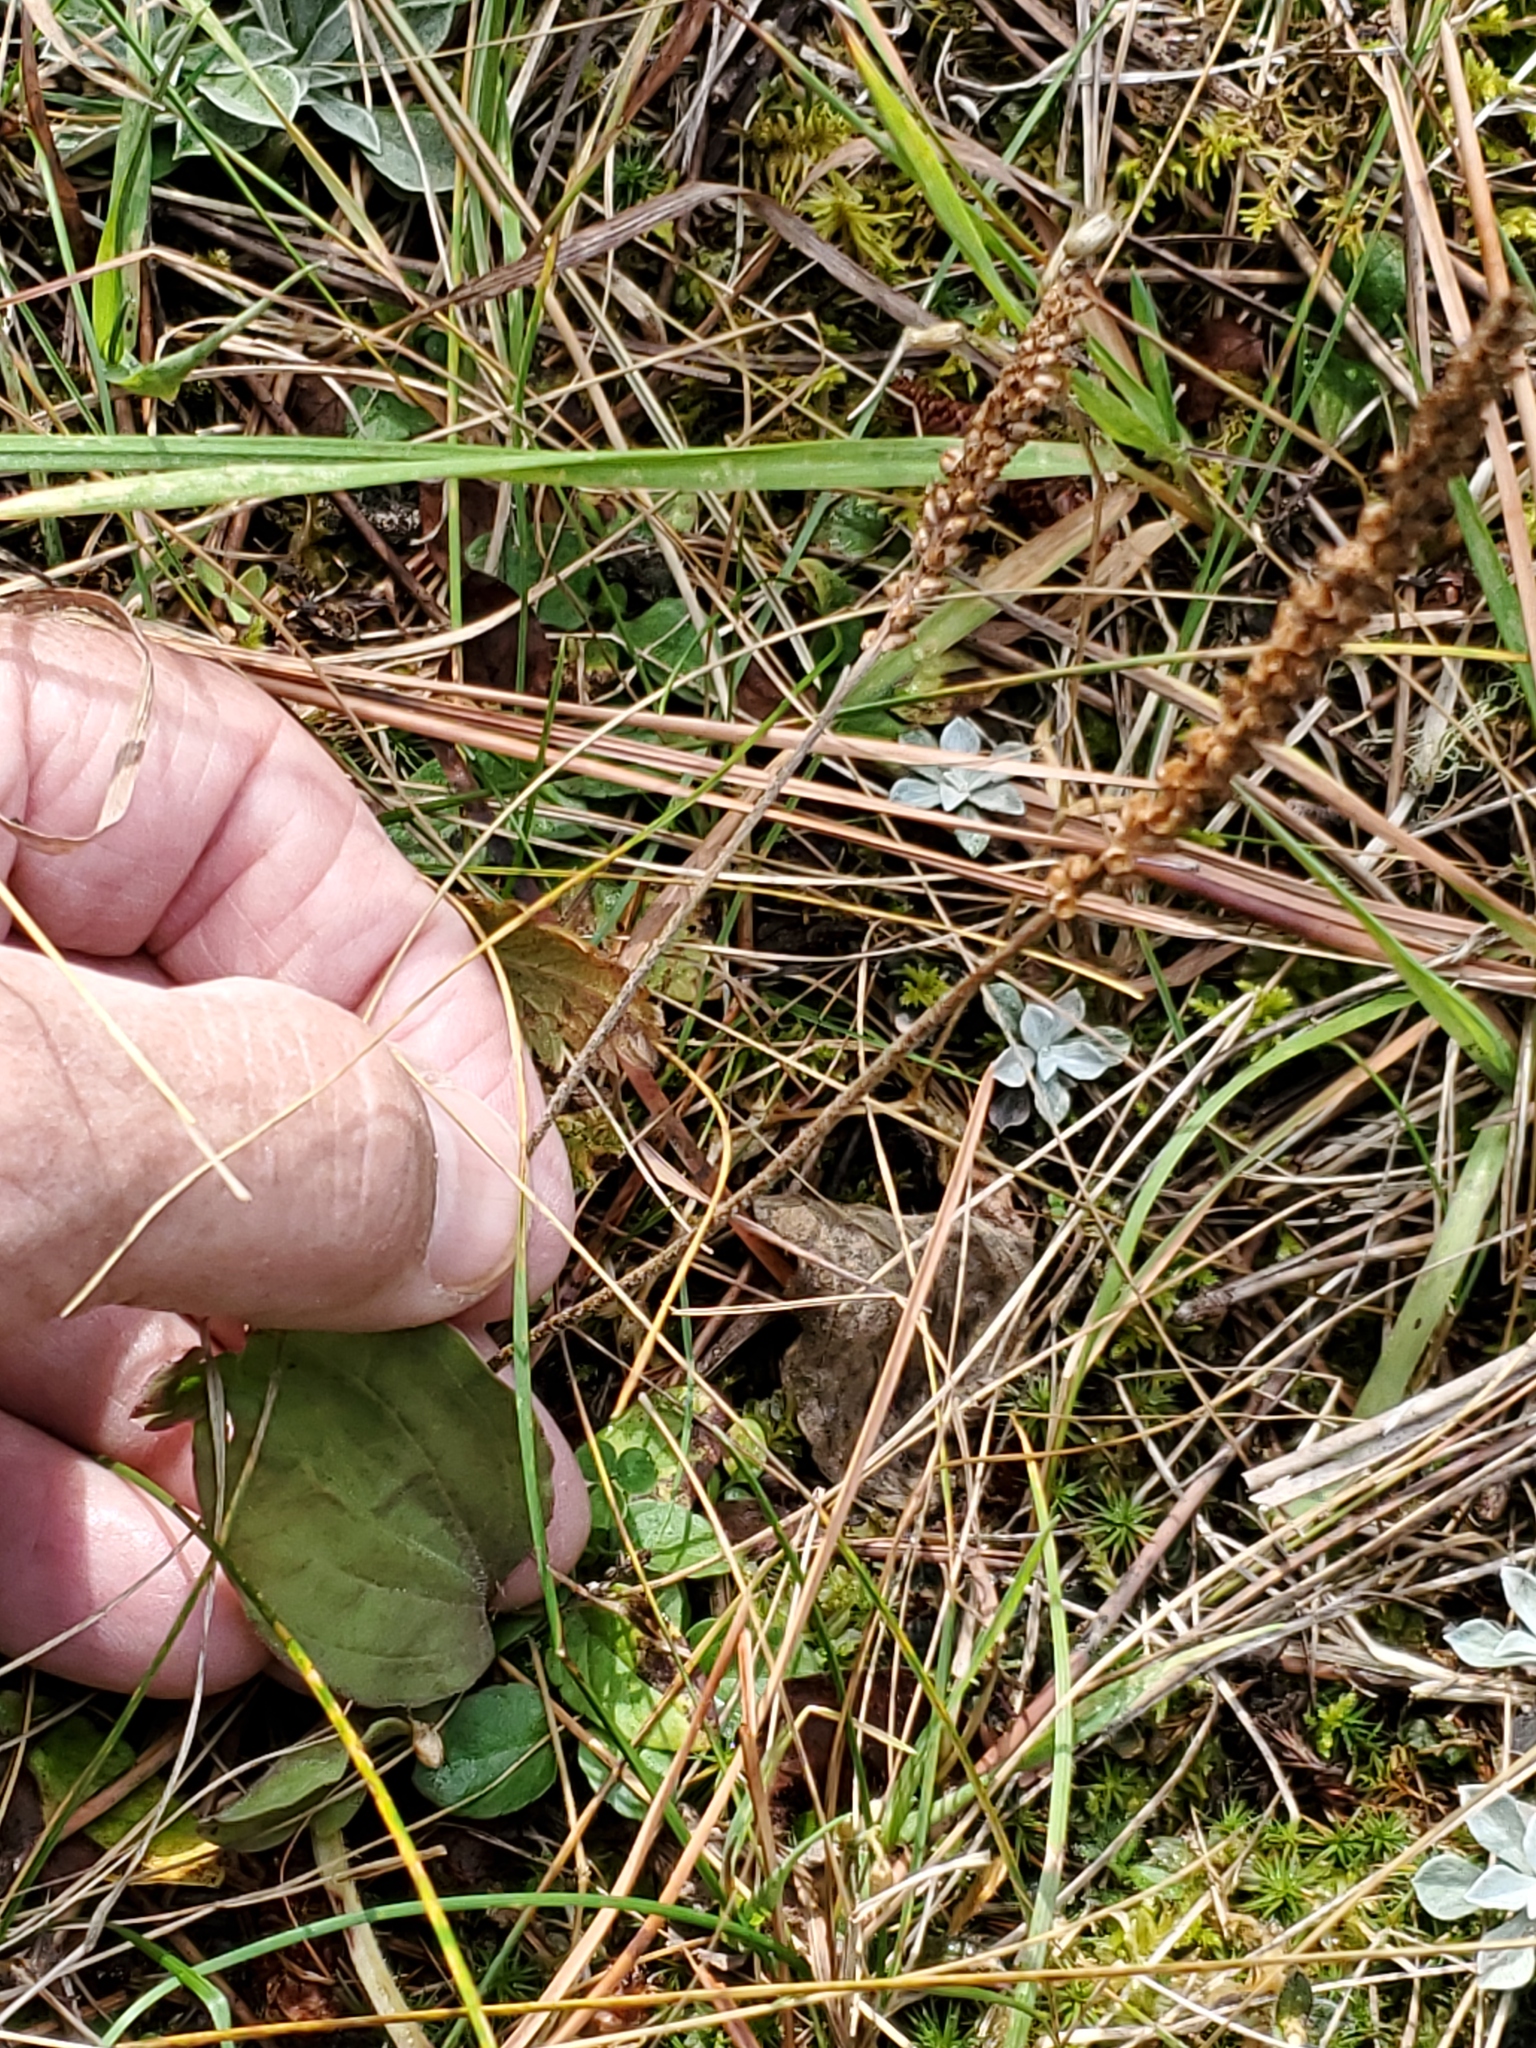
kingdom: Plantae
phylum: Tracheophyta
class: Magnoliopsida
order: Lamiales
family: Plantaginaceae
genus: Plantago
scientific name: Plantago major
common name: Common plantain
